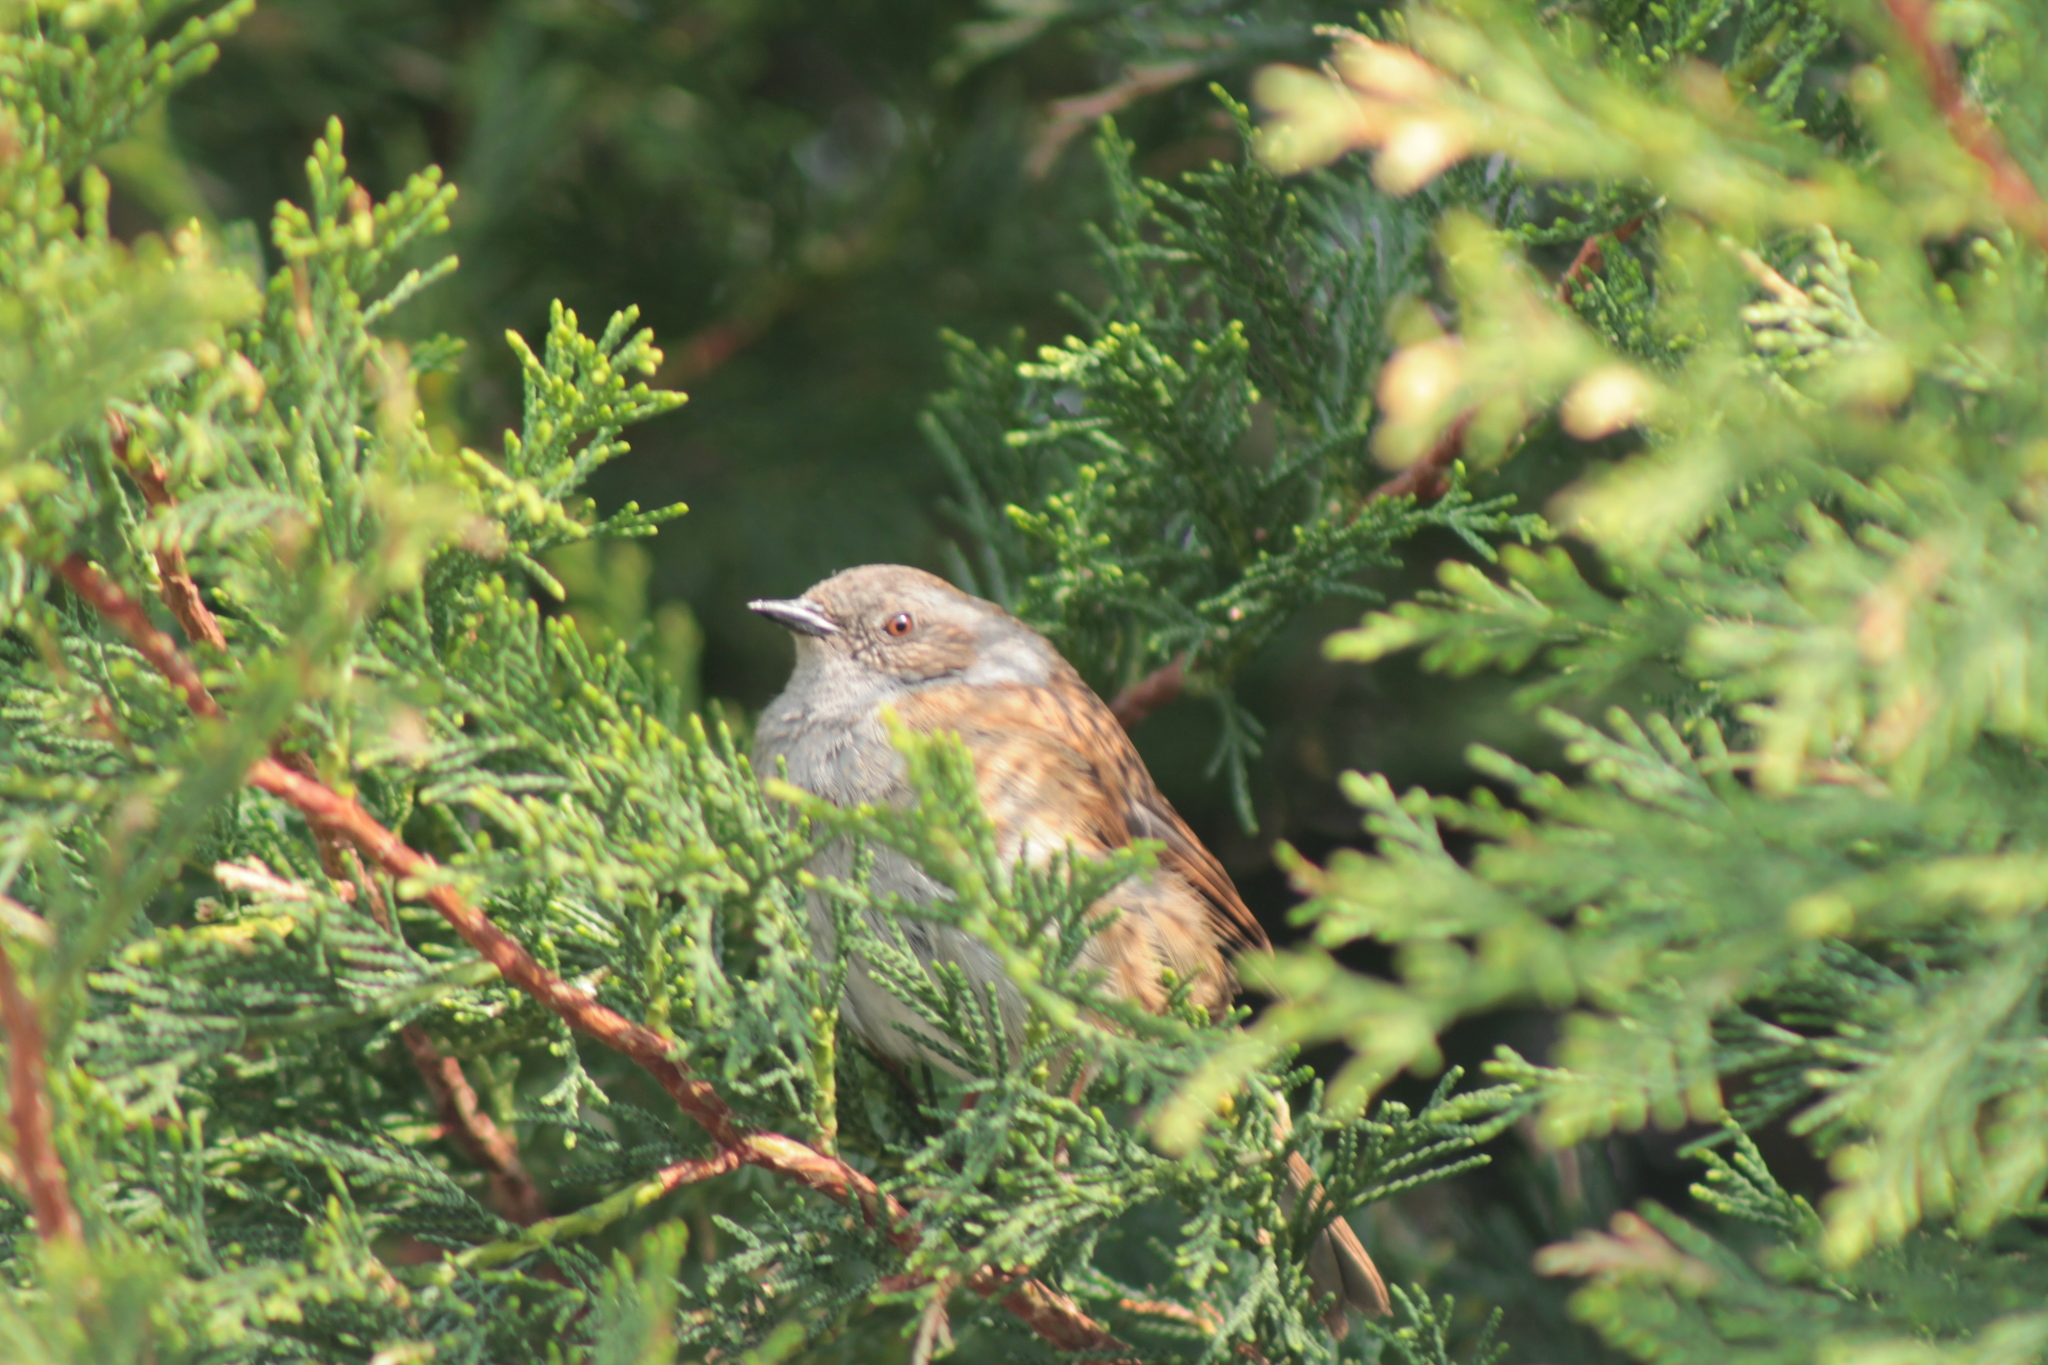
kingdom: Animalia
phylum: Chordata
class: Aves
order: Passeriformes
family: Prunellidae
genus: Prunella
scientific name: Prunella modularis
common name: Dunnock
